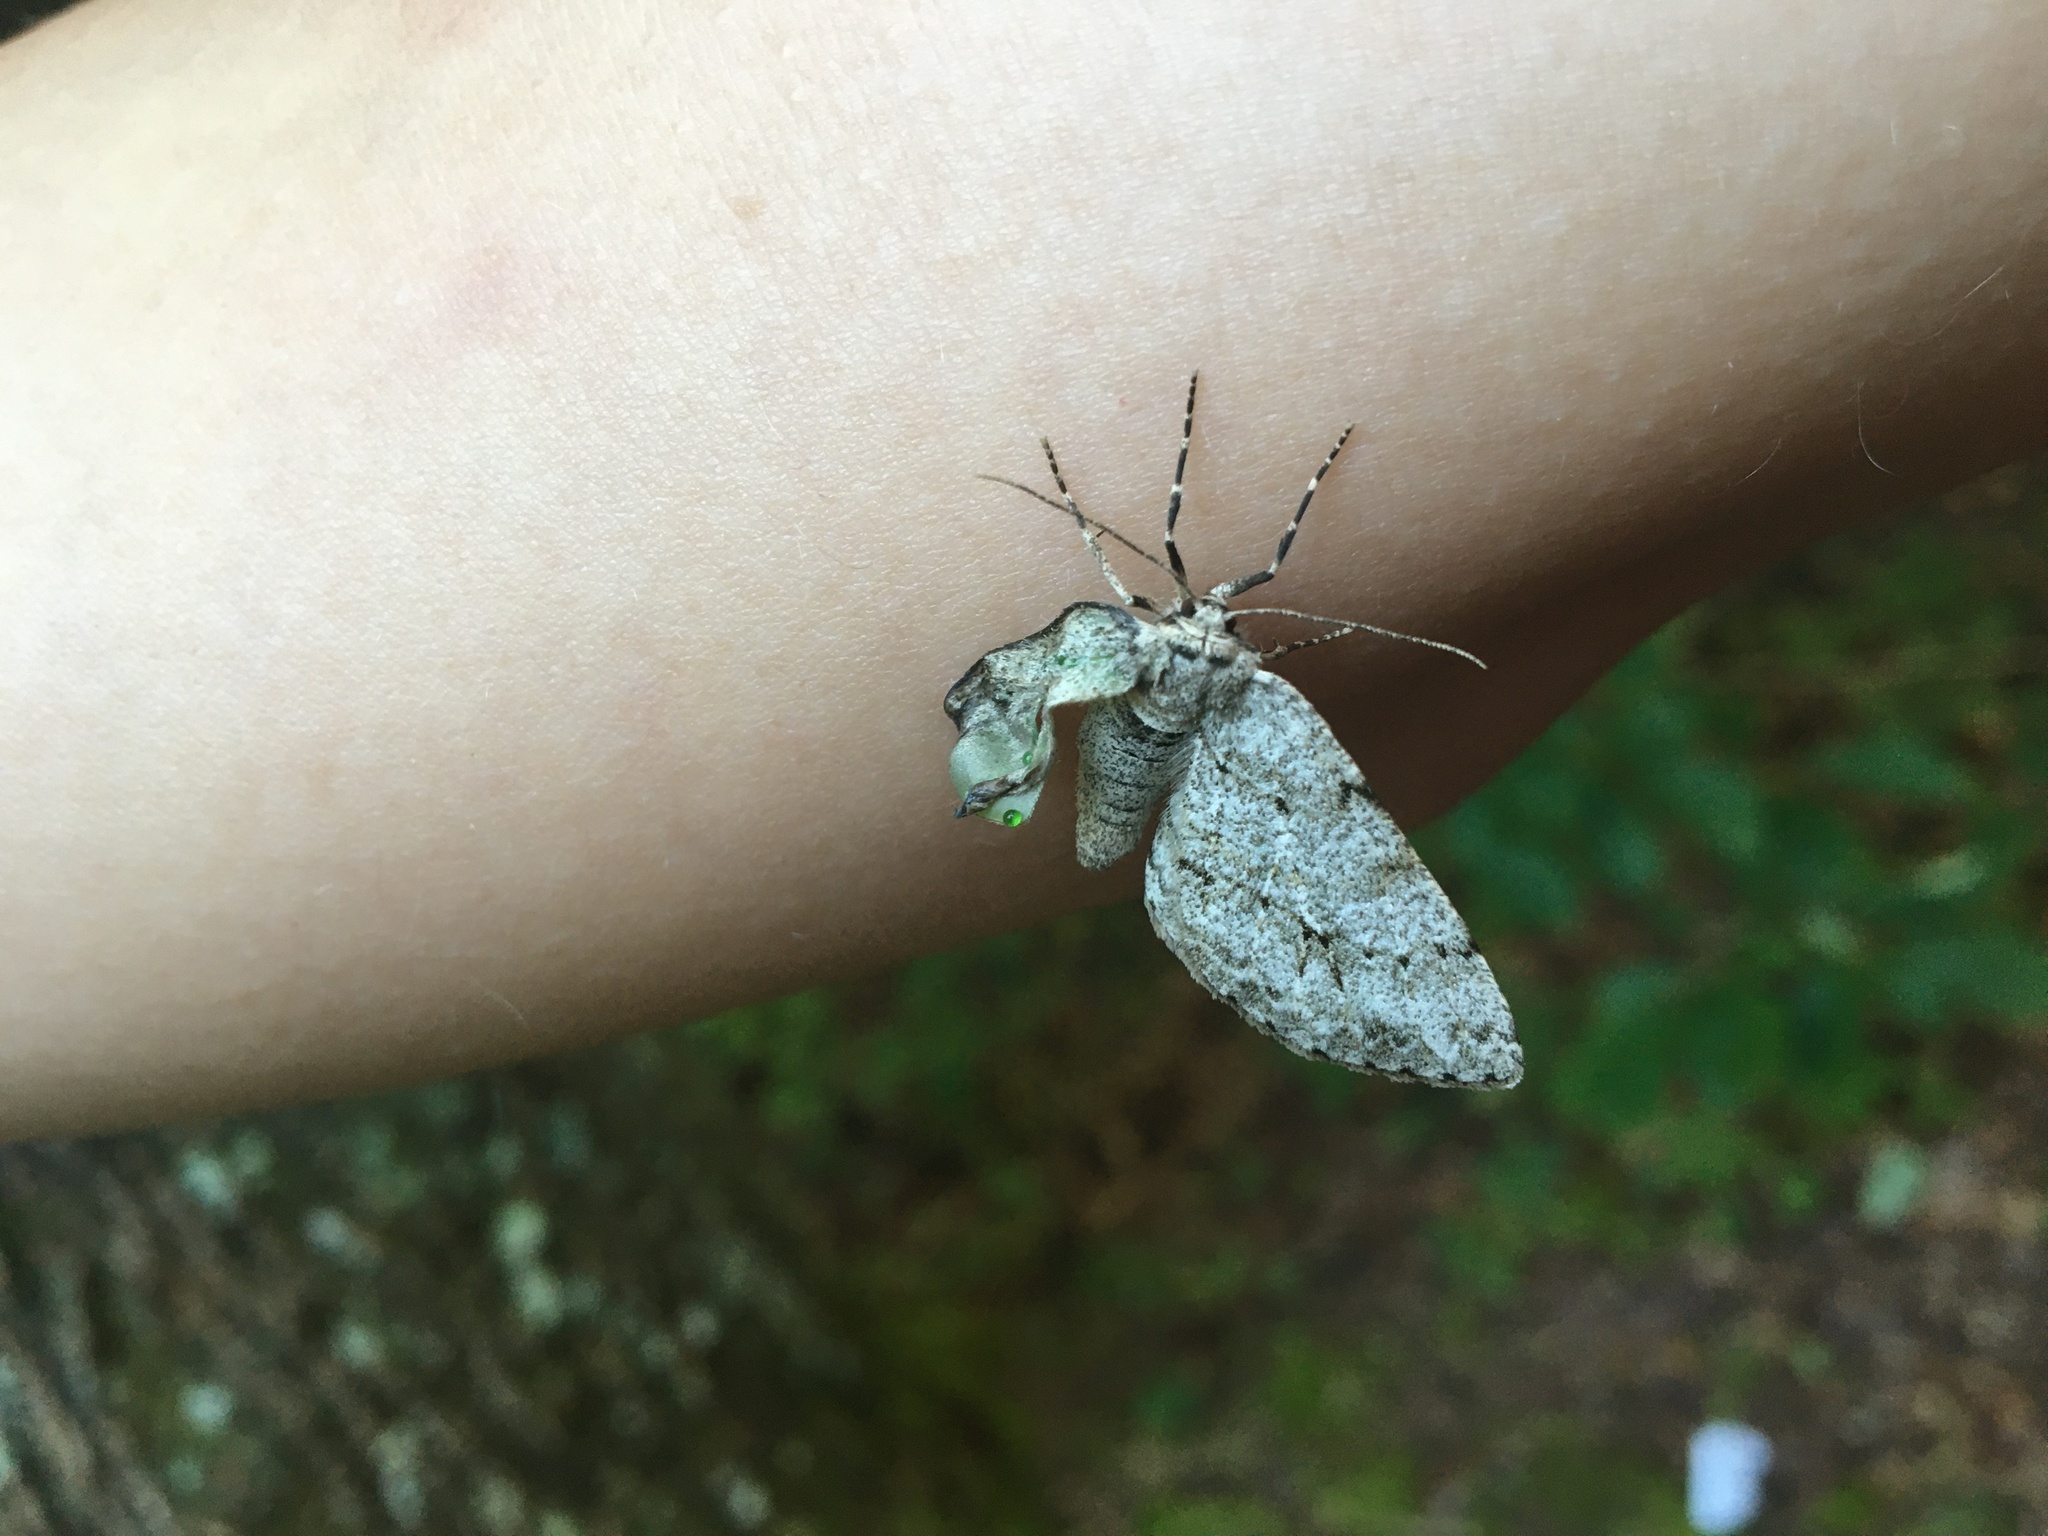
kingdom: Animalia
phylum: Arthropoda
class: Insecta
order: Lepidoptera
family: Geometridae
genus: Ectropis
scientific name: Ectropis crepuscularia
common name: Engrailed
